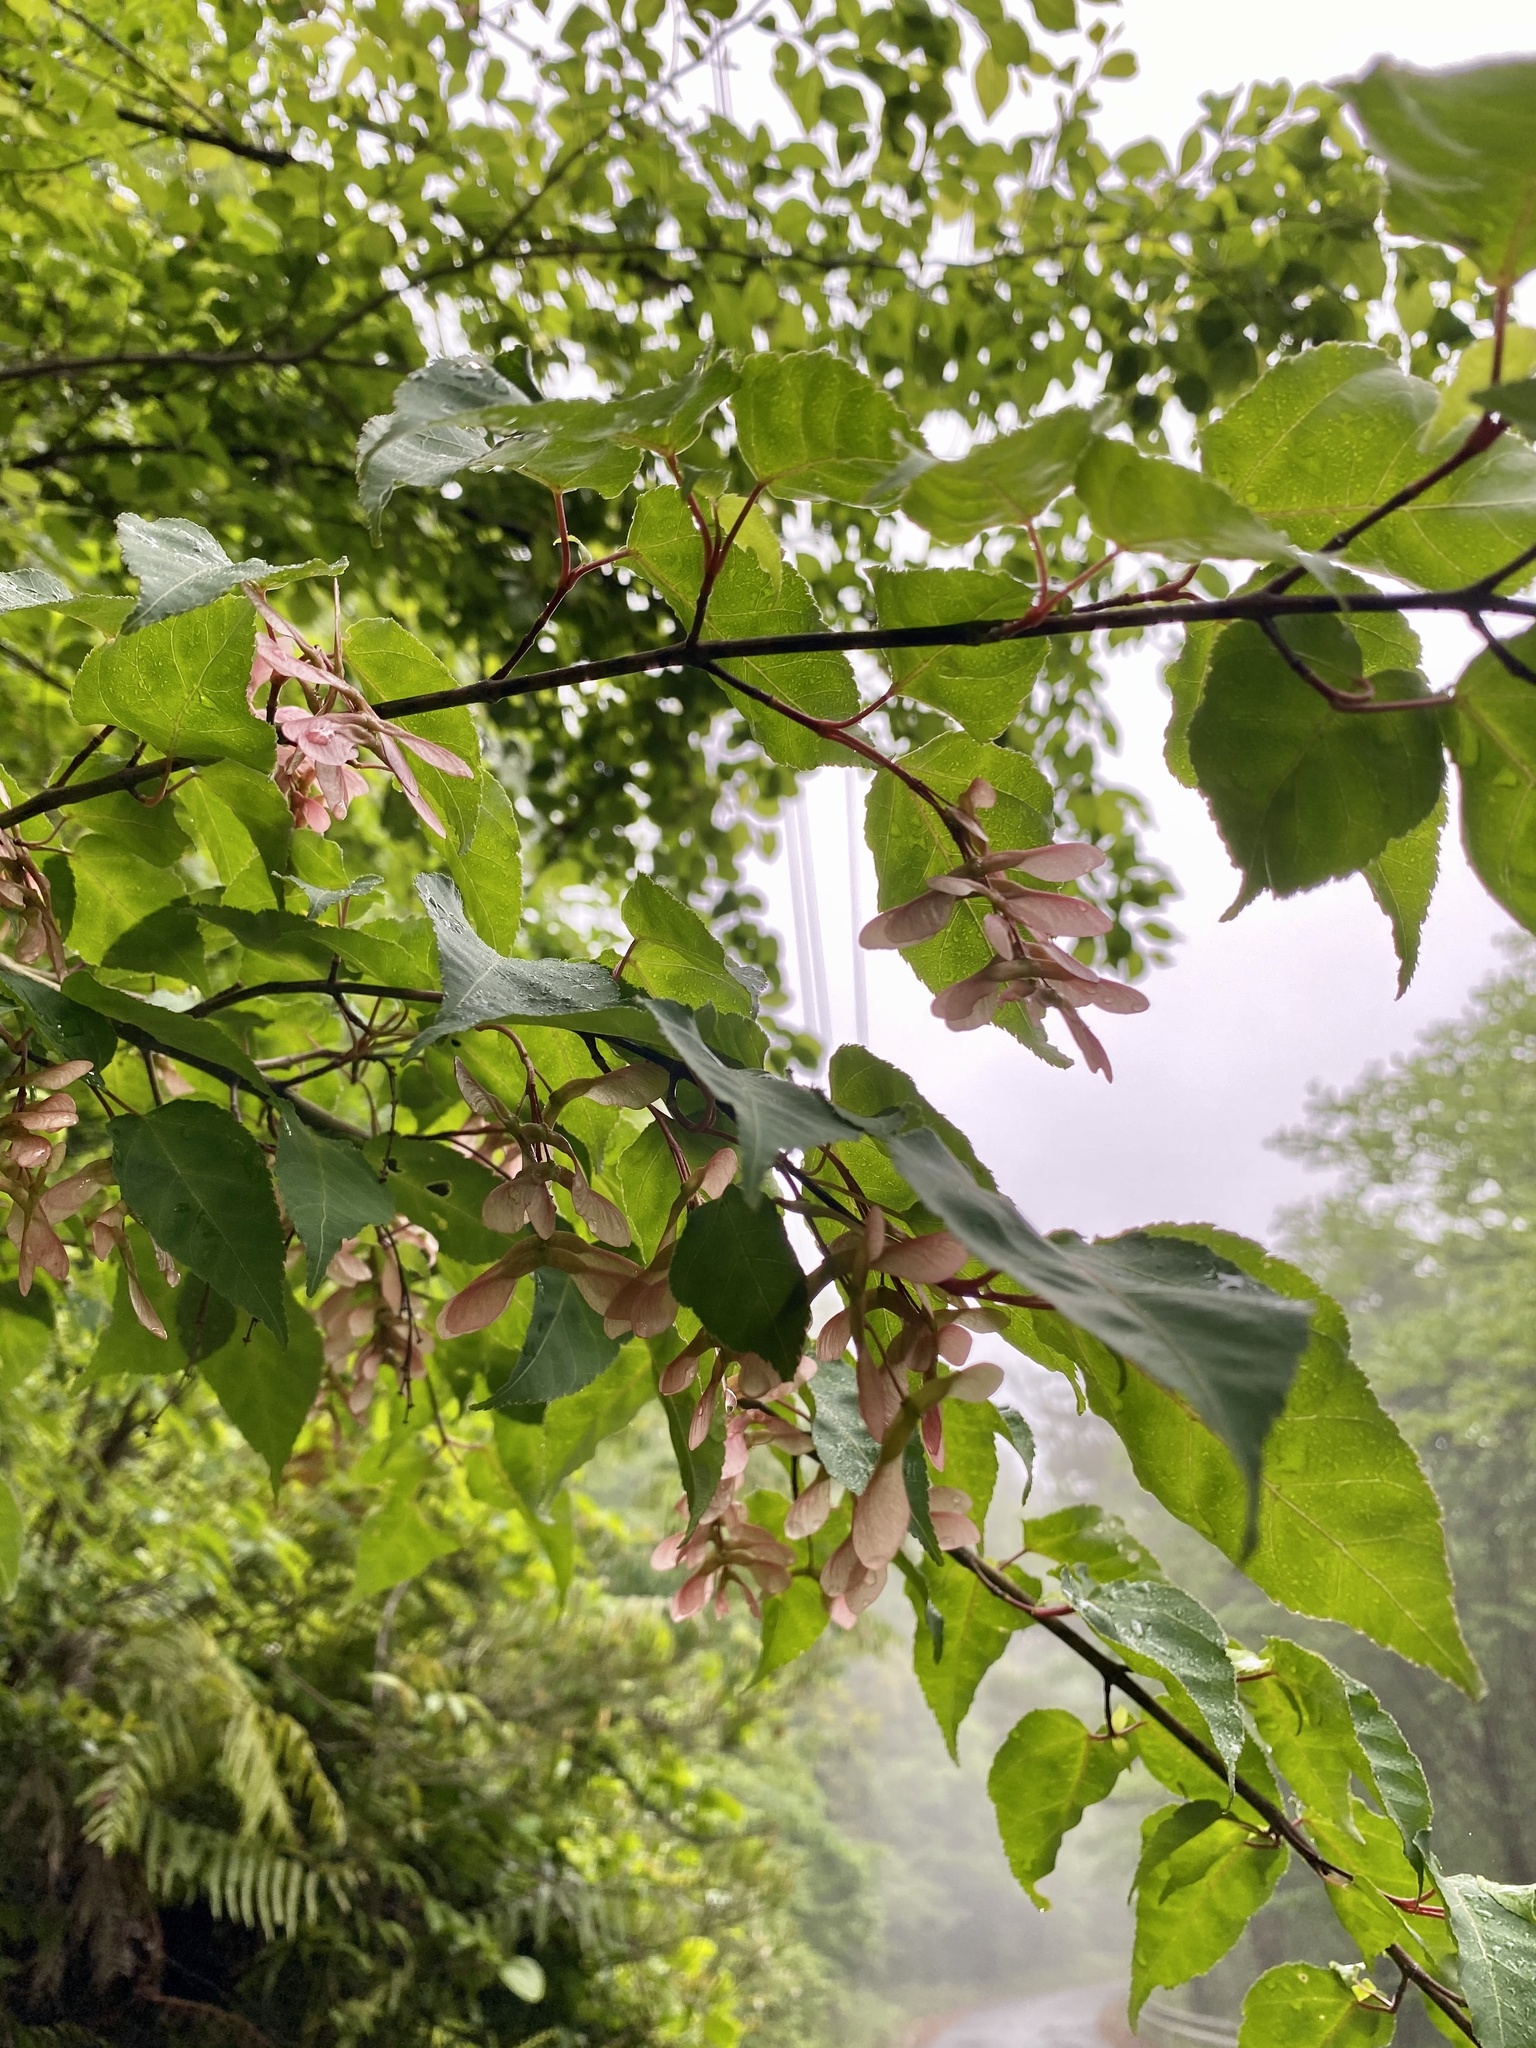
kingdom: Plantae
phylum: Tracheophyta
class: Magnoliopsida
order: Sapindales
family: Sapindaceae
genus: Acer
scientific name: Acer crataegifolium
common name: Hawthorn-leaf maple
